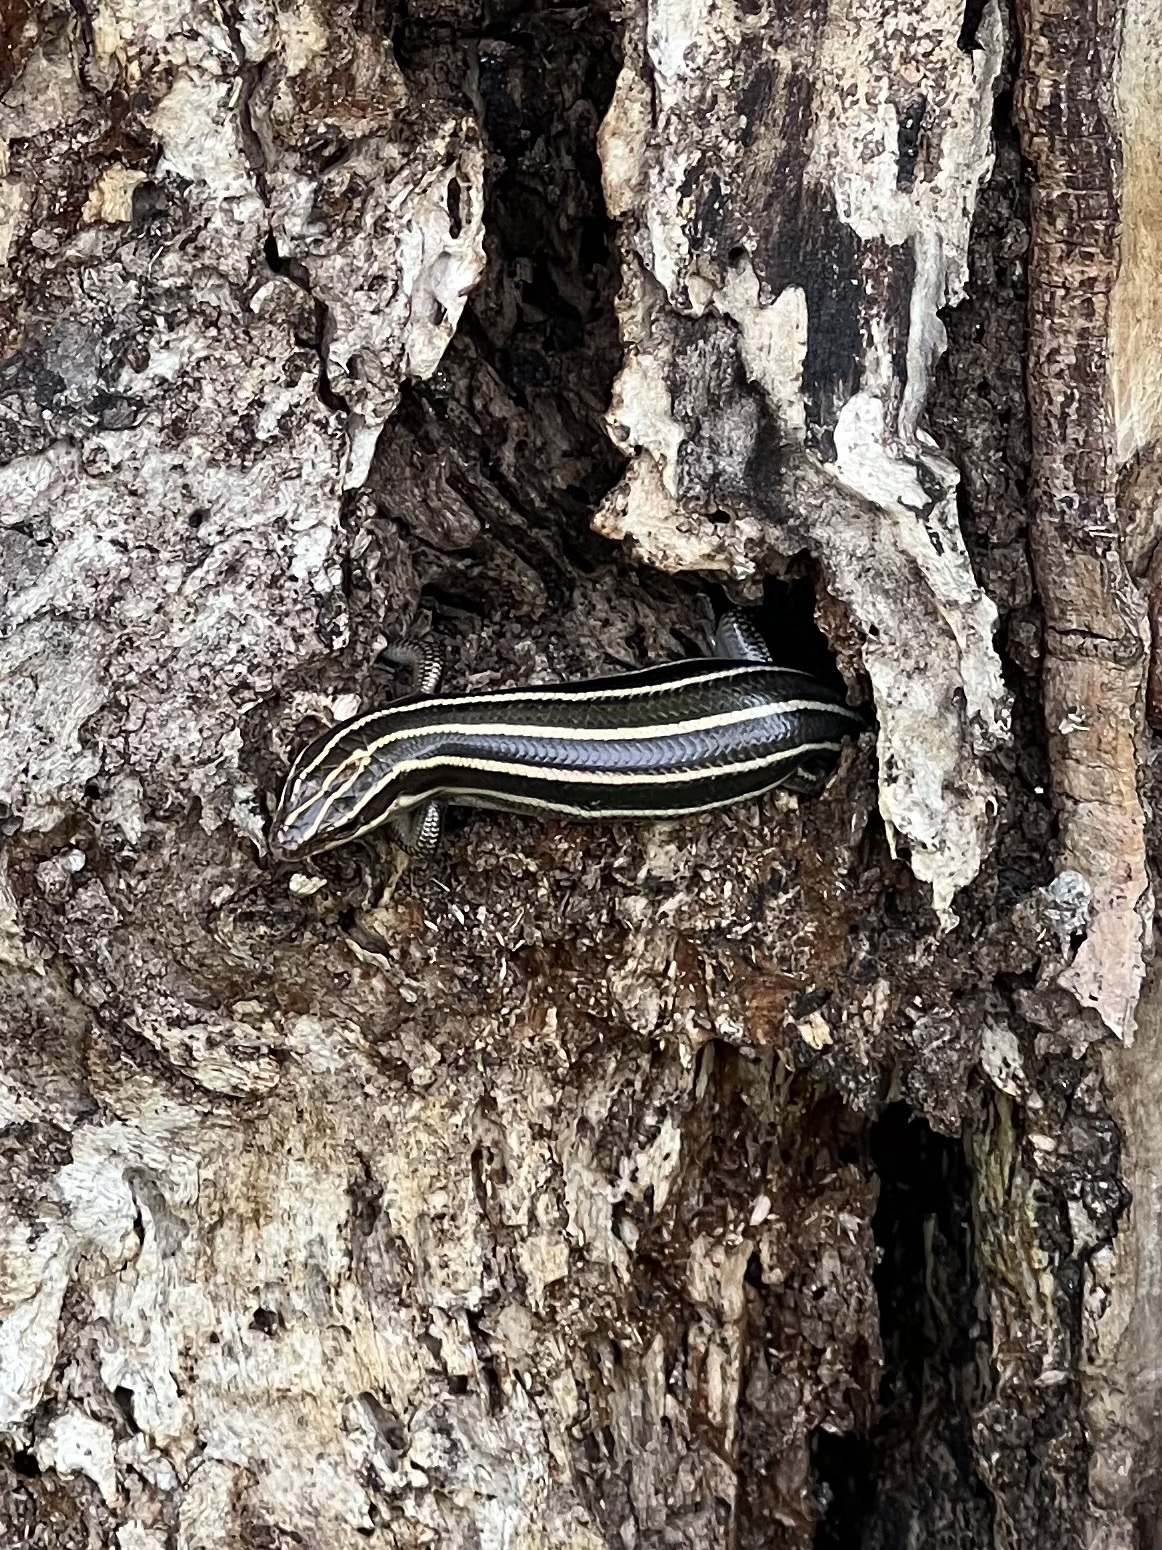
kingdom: Animalia
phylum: Chordata
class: Squamata
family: Scincidae
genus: Plestiodon
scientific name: Plestiodon fasciatus
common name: Five-lined skink
